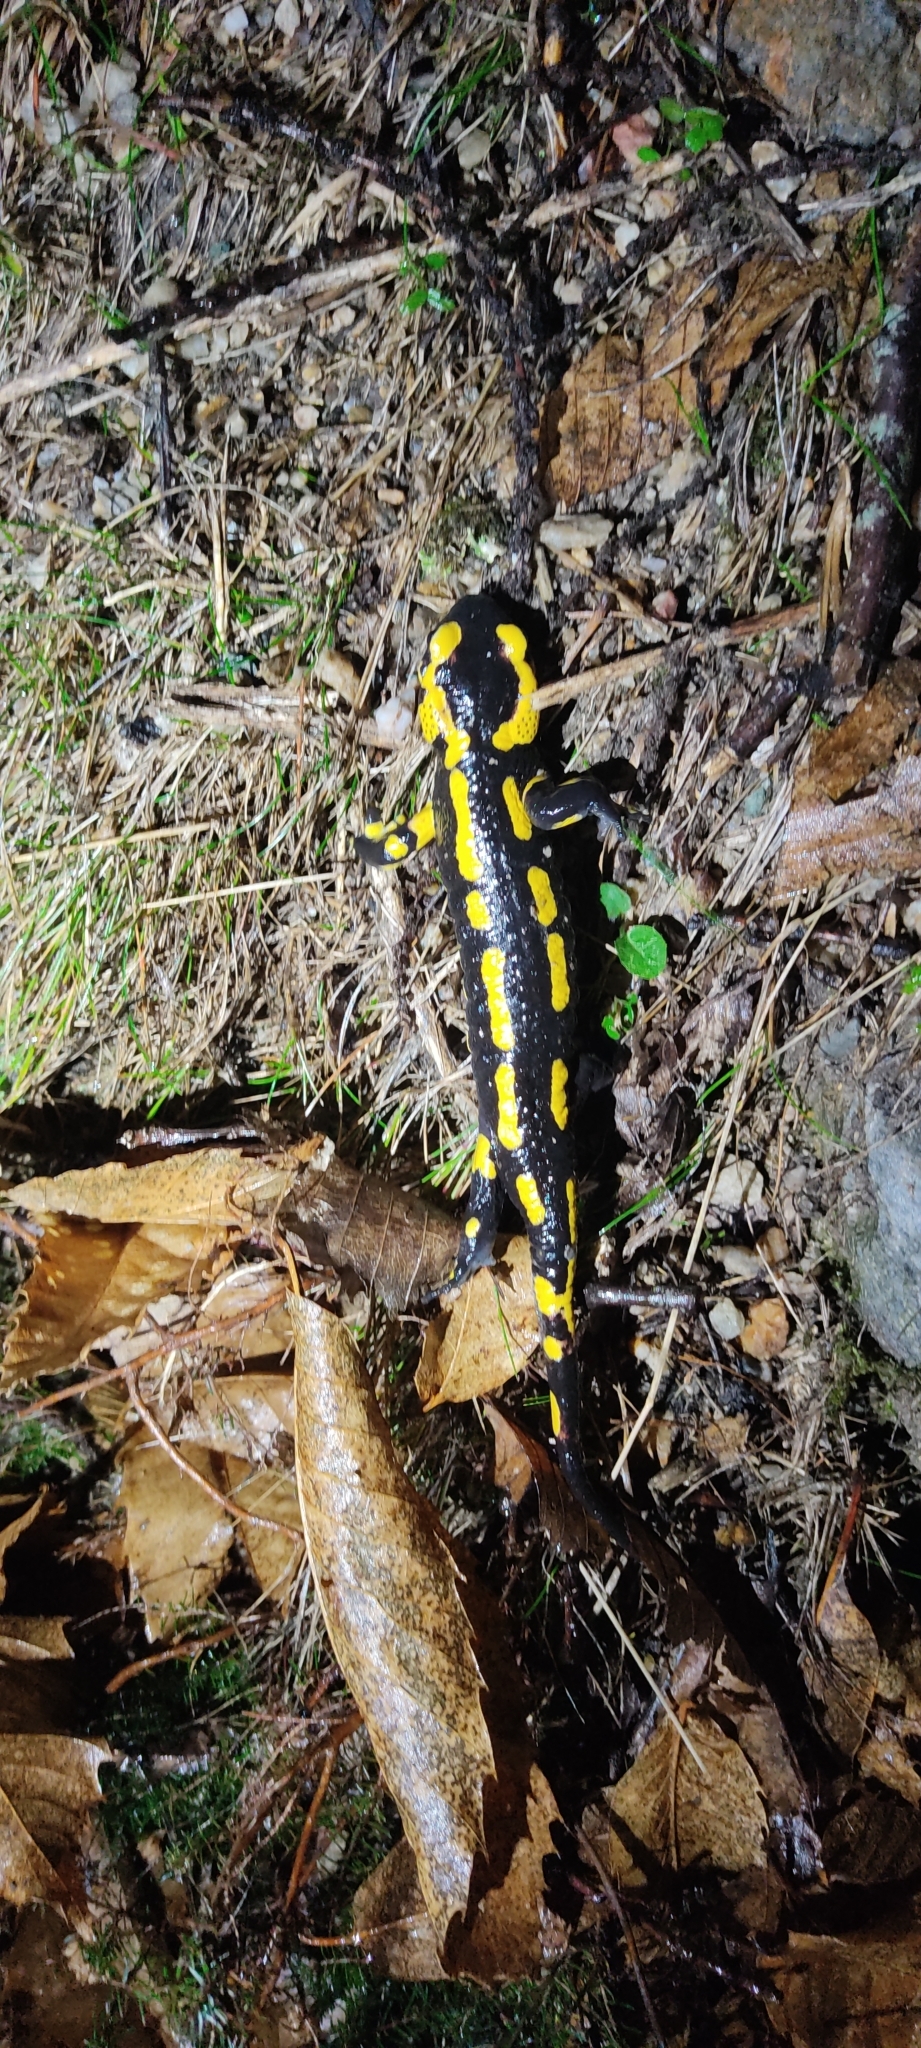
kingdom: Animalia
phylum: Chordata
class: Amphibia
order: Caudata
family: Salamandridae
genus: Salamandra
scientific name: Salamandra salamandra
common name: Fire salamander
